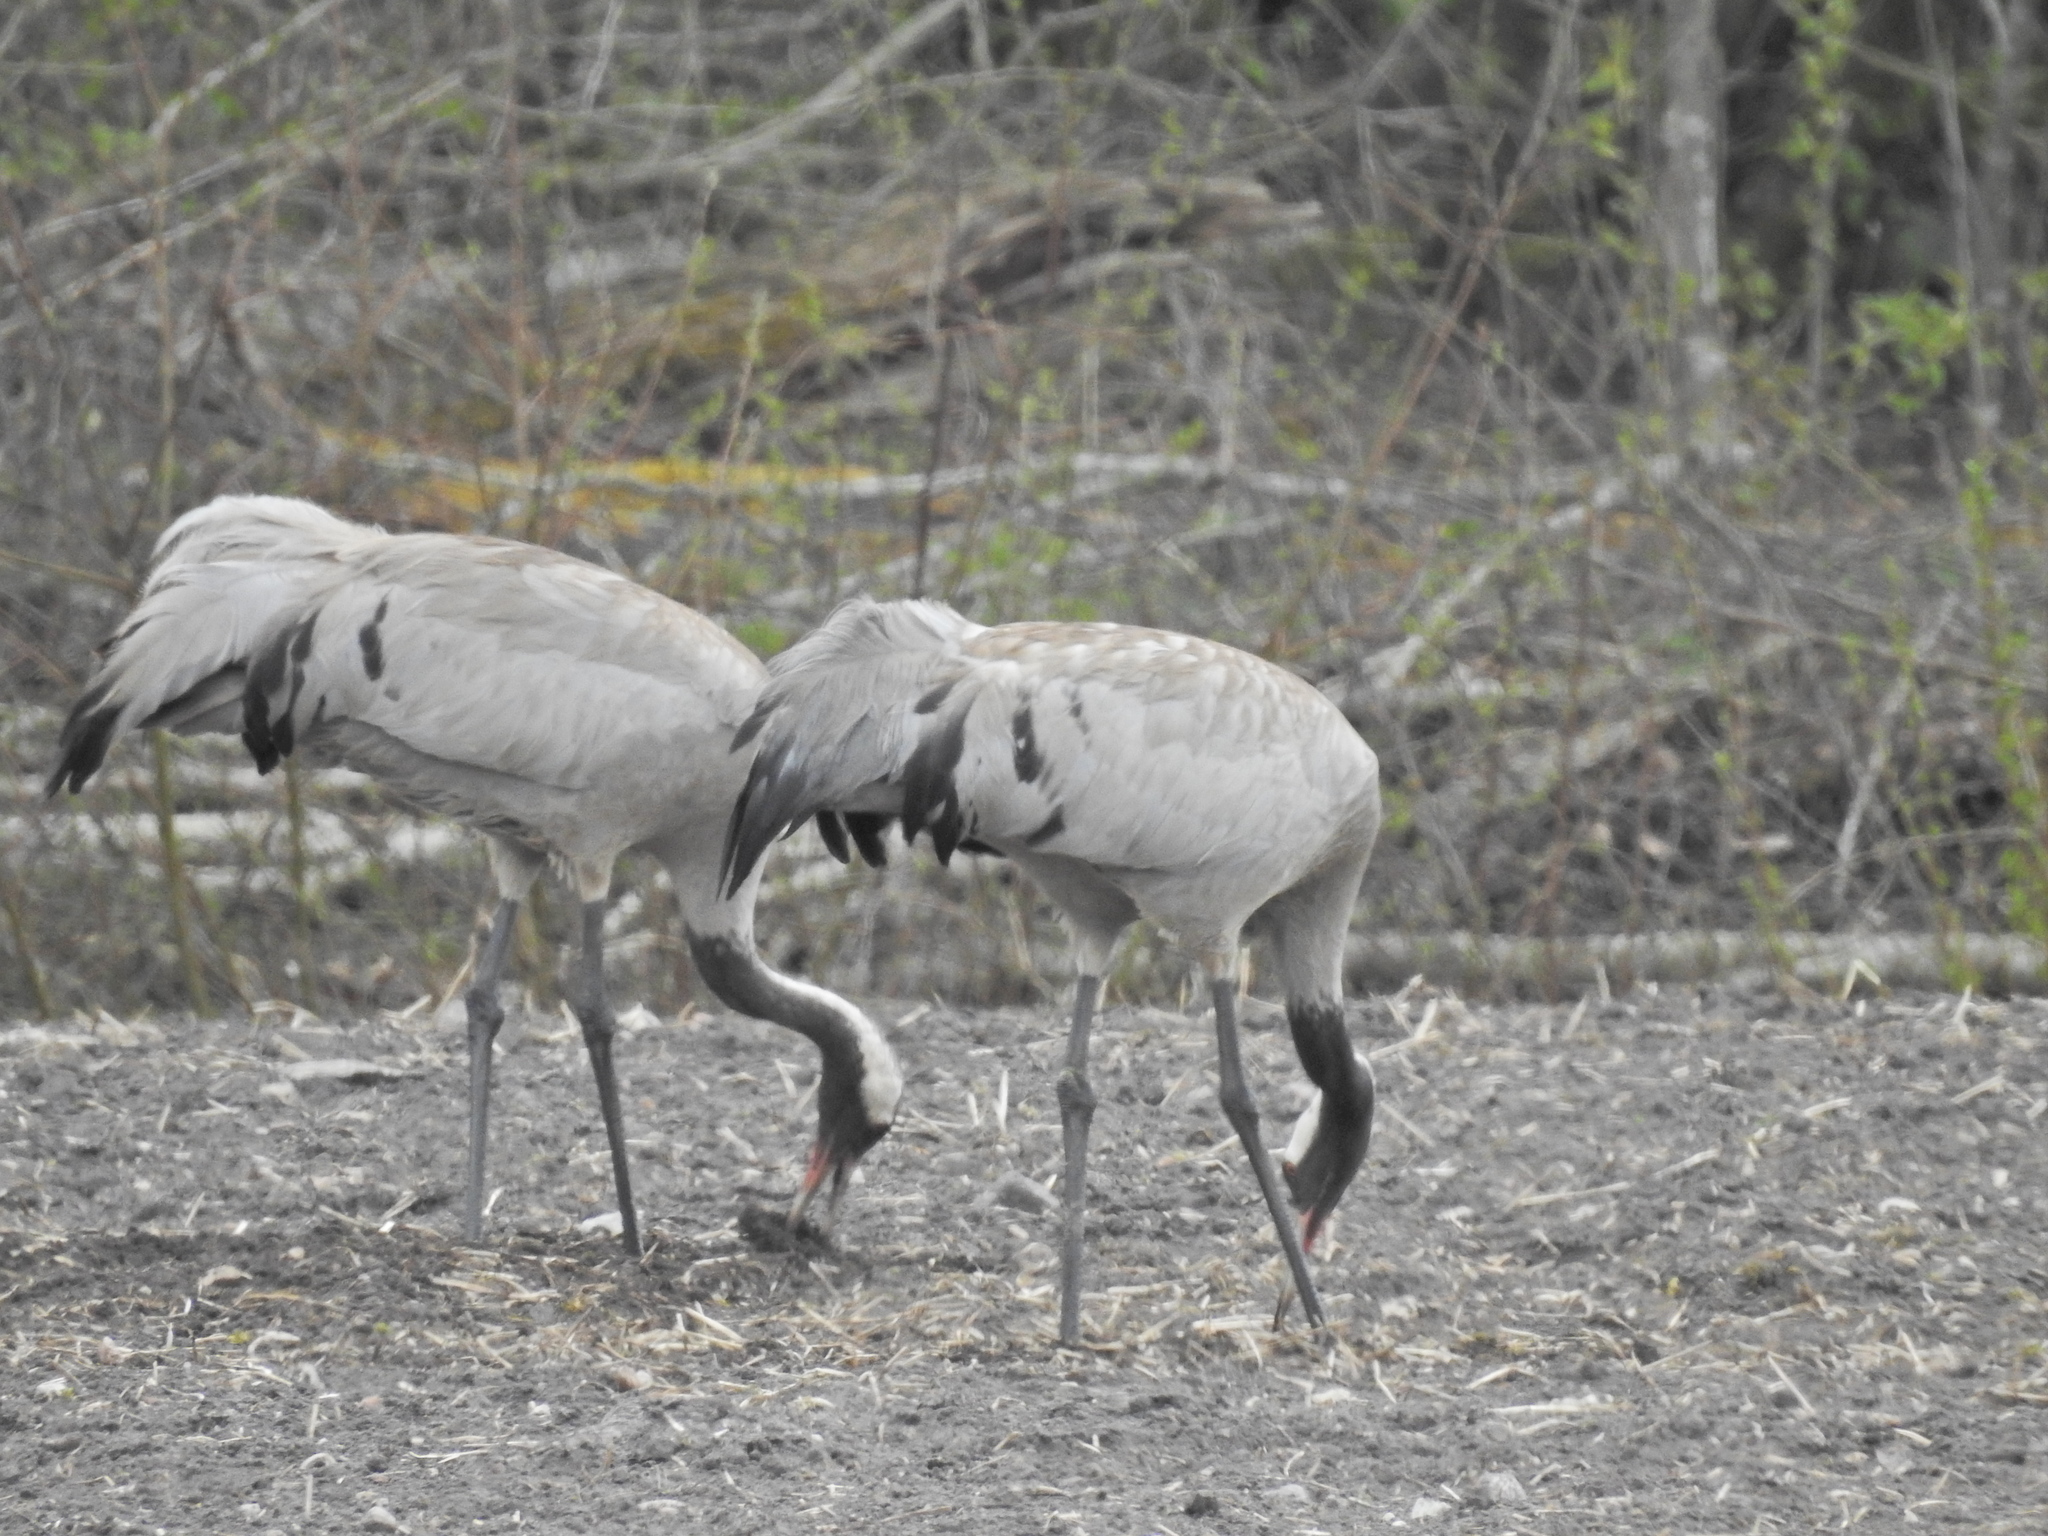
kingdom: Animalia
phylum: Chordata
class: Aves
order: Gruiformes
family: Gruidae
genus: Grus
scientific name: Grus grus
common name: Common crane
